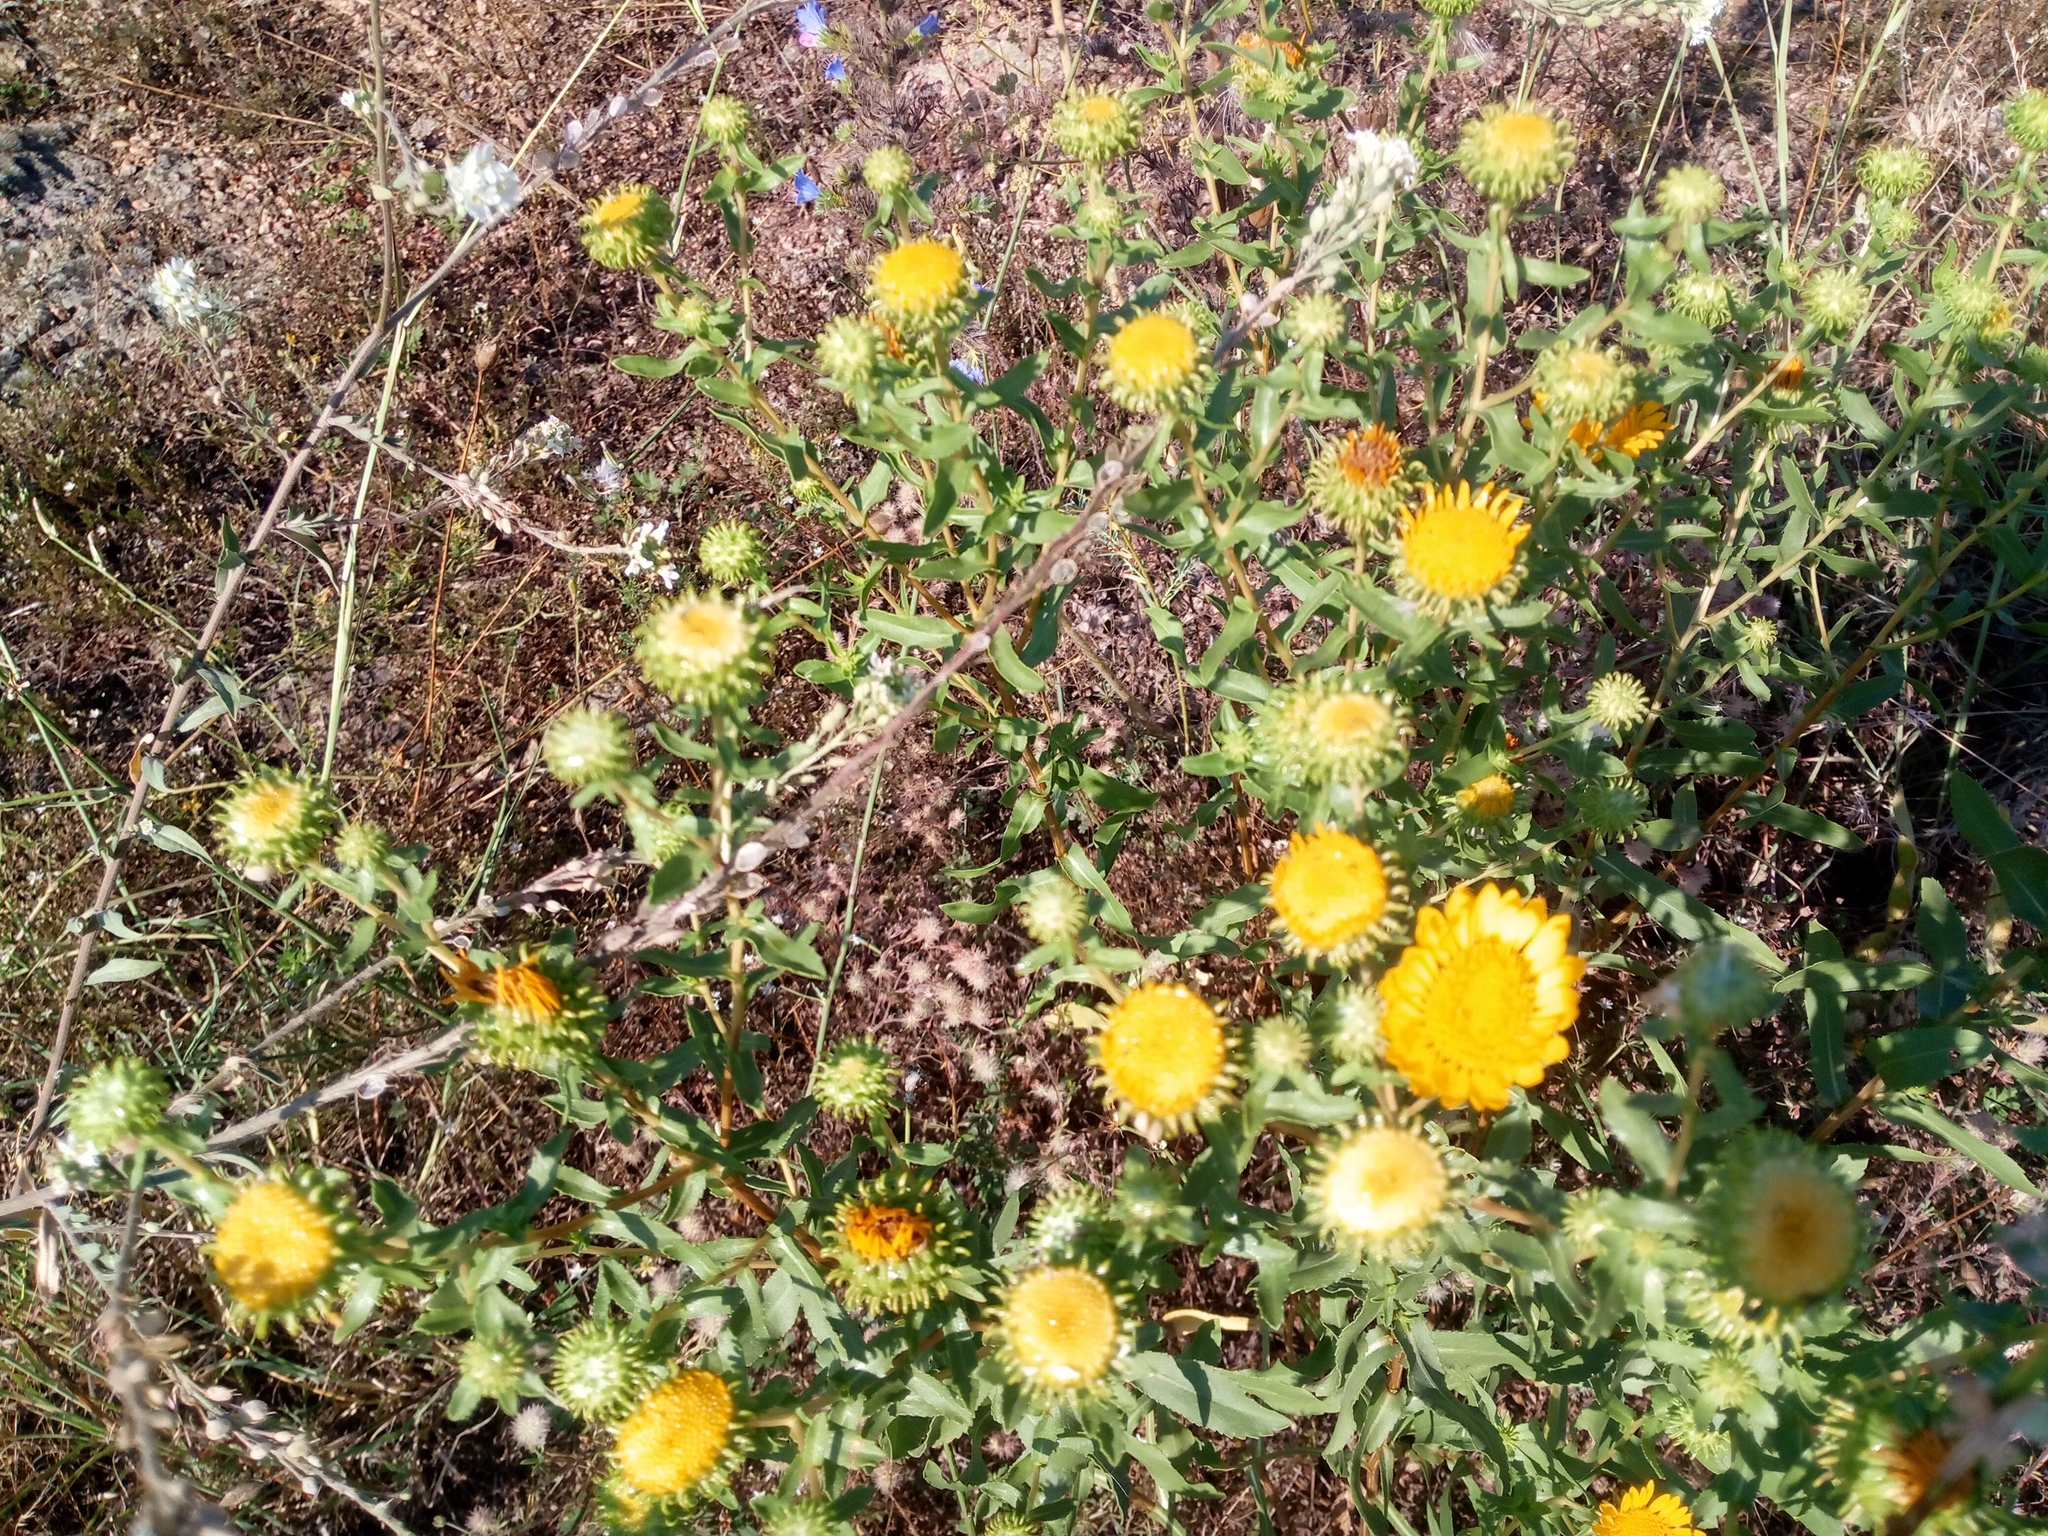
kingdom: Plantae
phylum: Tracheophyta
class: Magnoliopsida
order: Asterales
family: Asteraceae
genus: Grindelia
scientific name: Grindelia squarrosa
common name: Curly-cup gumweed
